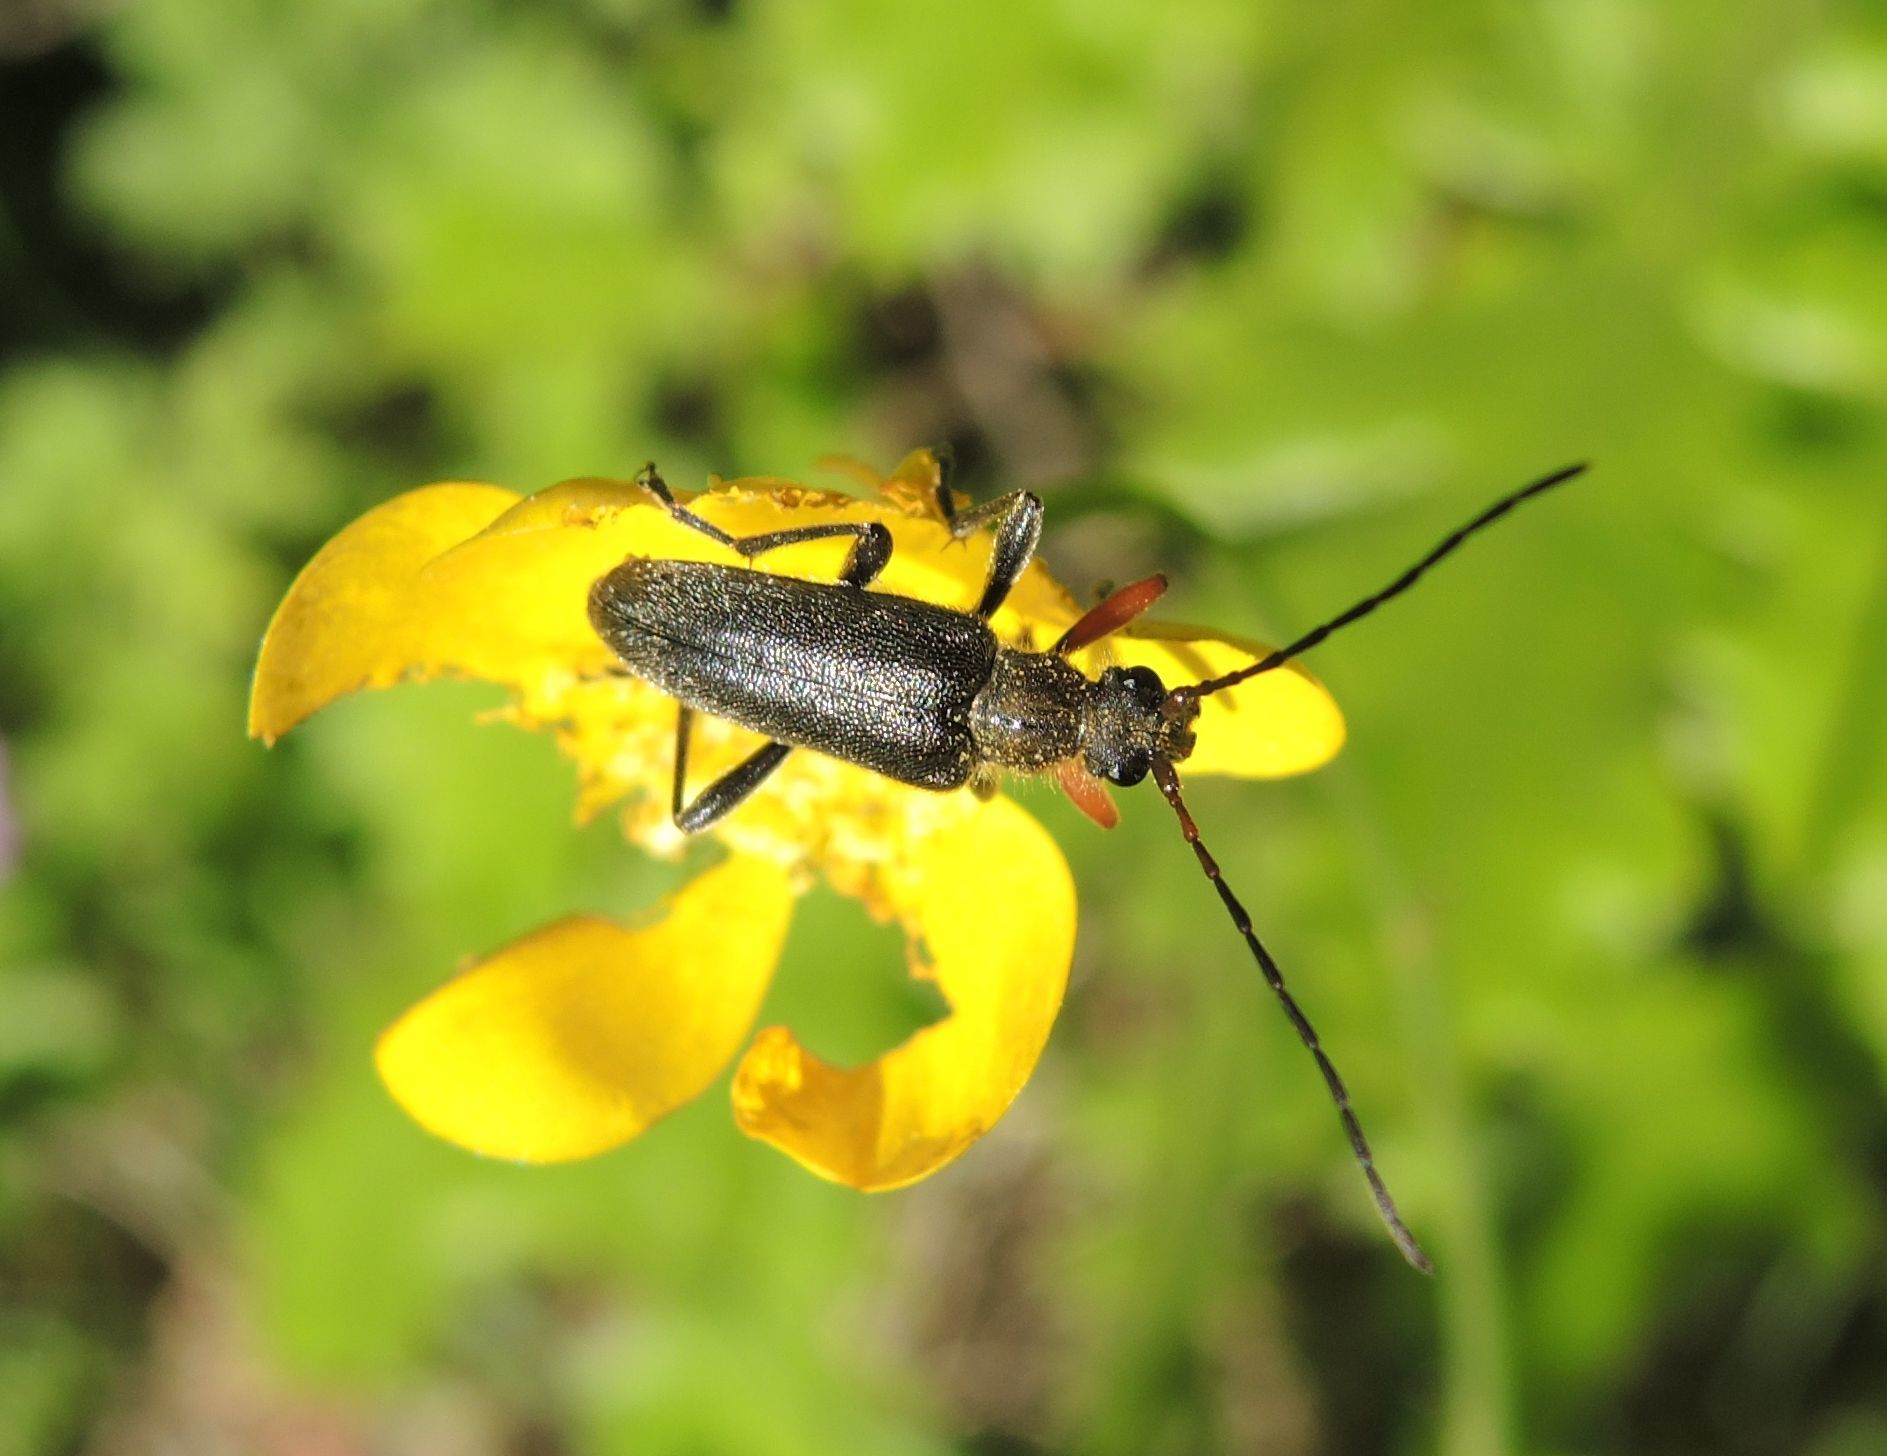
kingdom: Animalia
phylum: Arthropoda
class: Insecta
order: Coleoptera
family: Cerambycidae
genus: Cortodera
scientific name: Cortodera flavimana
